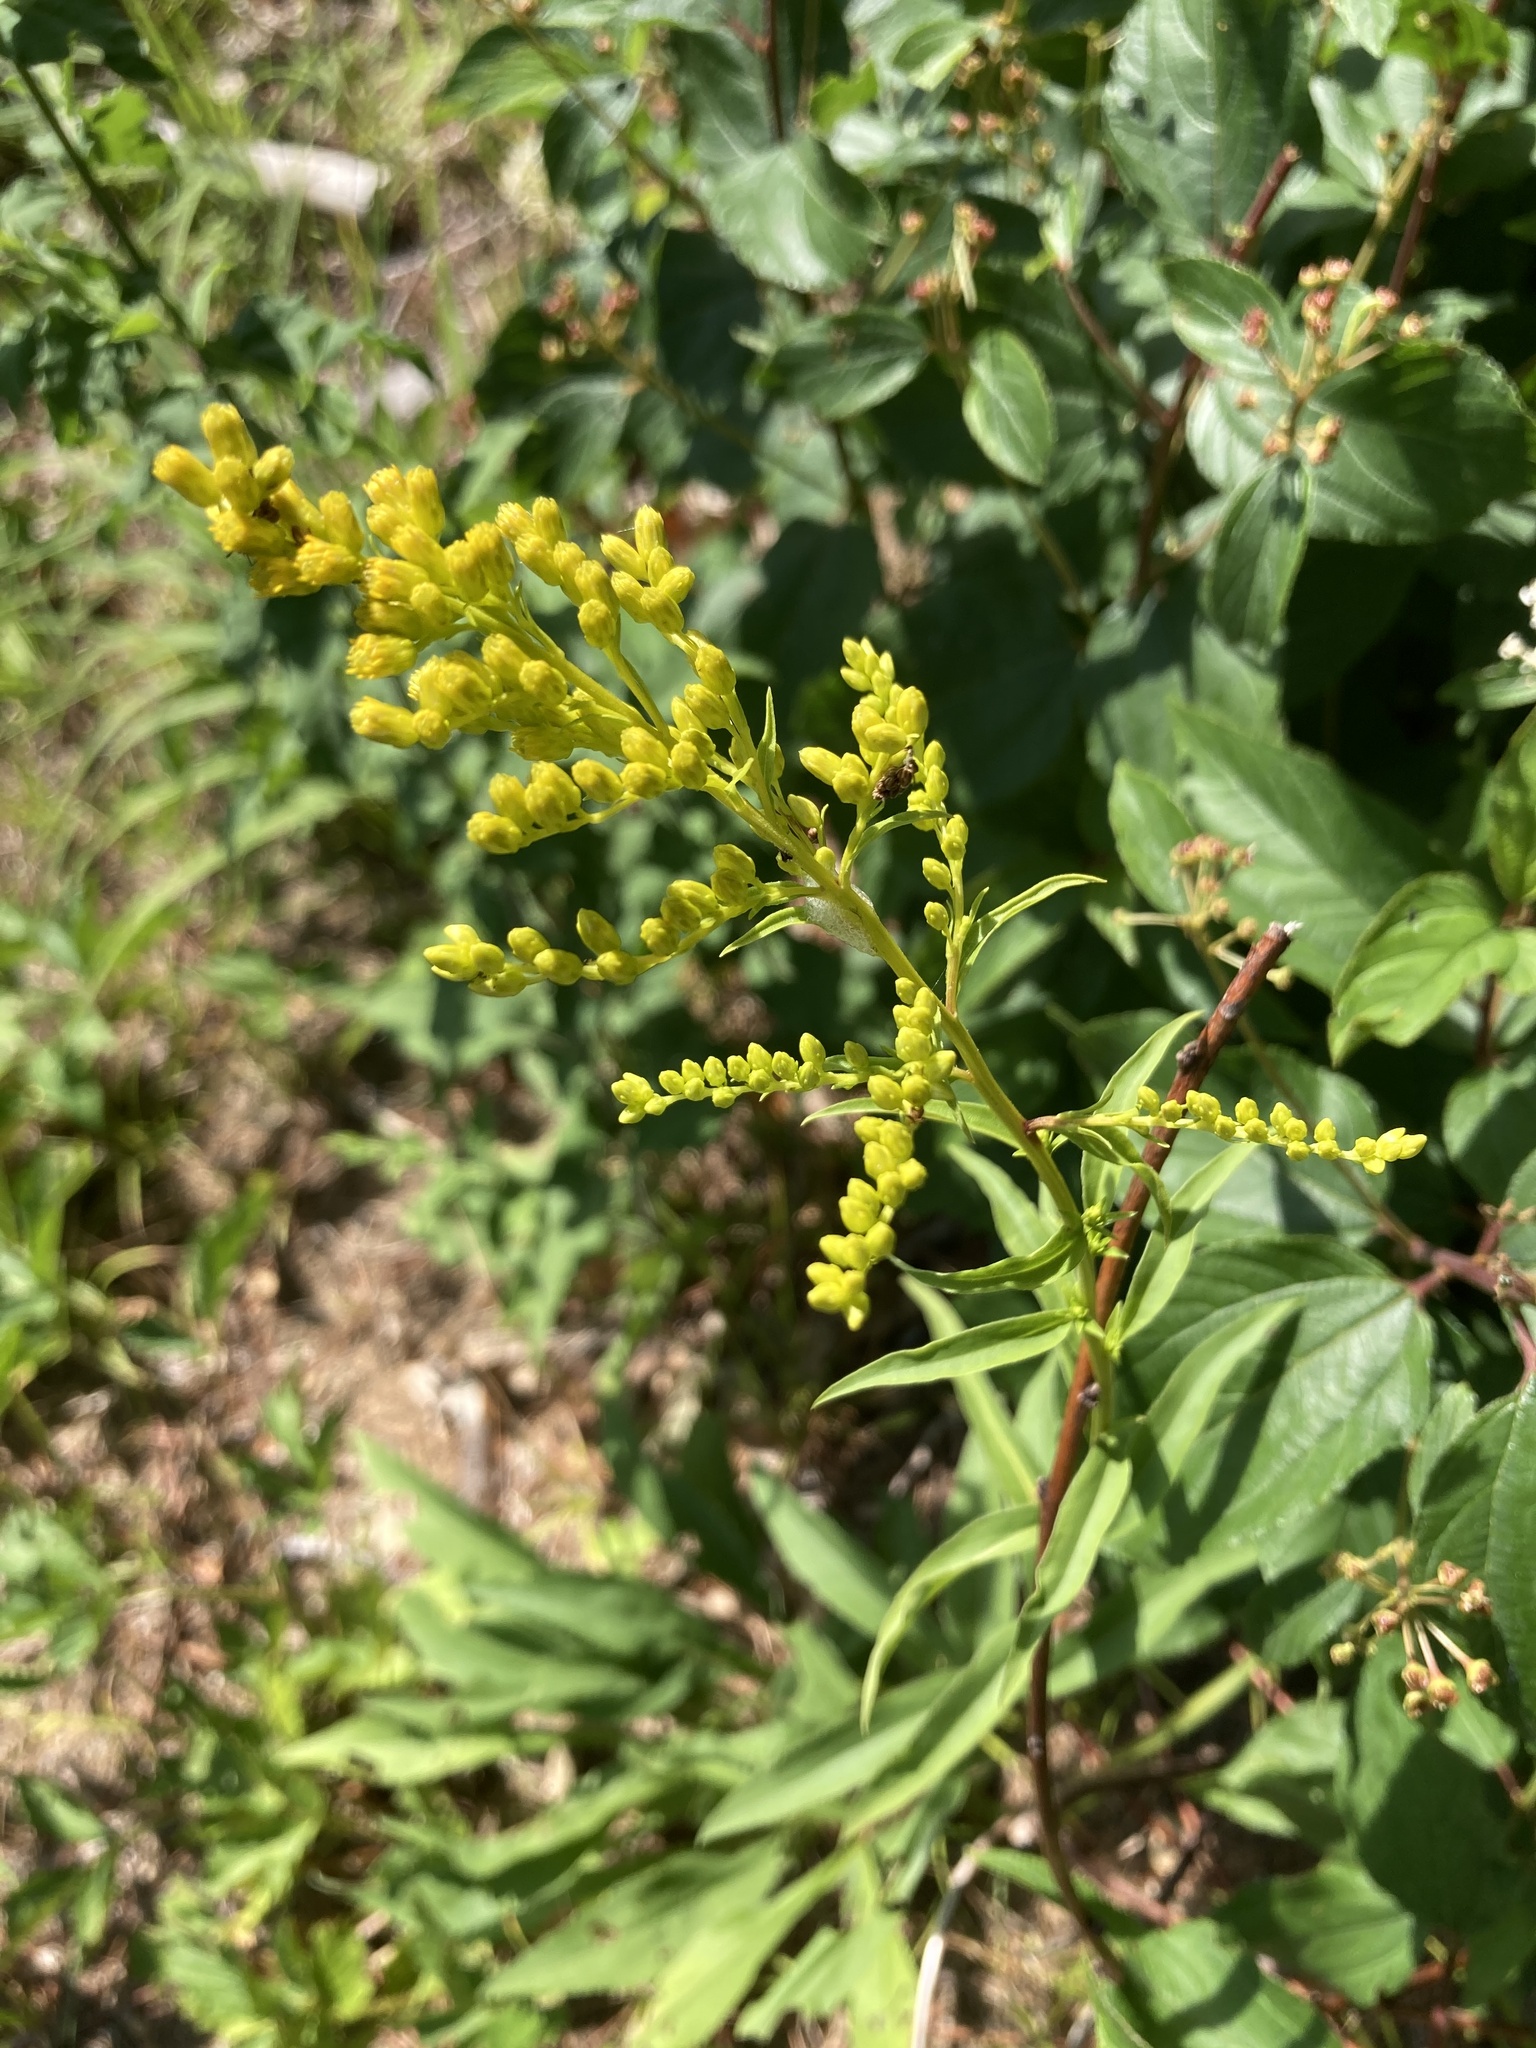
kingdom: Plantae
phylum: Tracheophyta
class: Magnoliopsida
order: Asterales
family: Asteraceae
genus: Solidago
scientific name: Solidago juncea
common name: Early goldenrod
